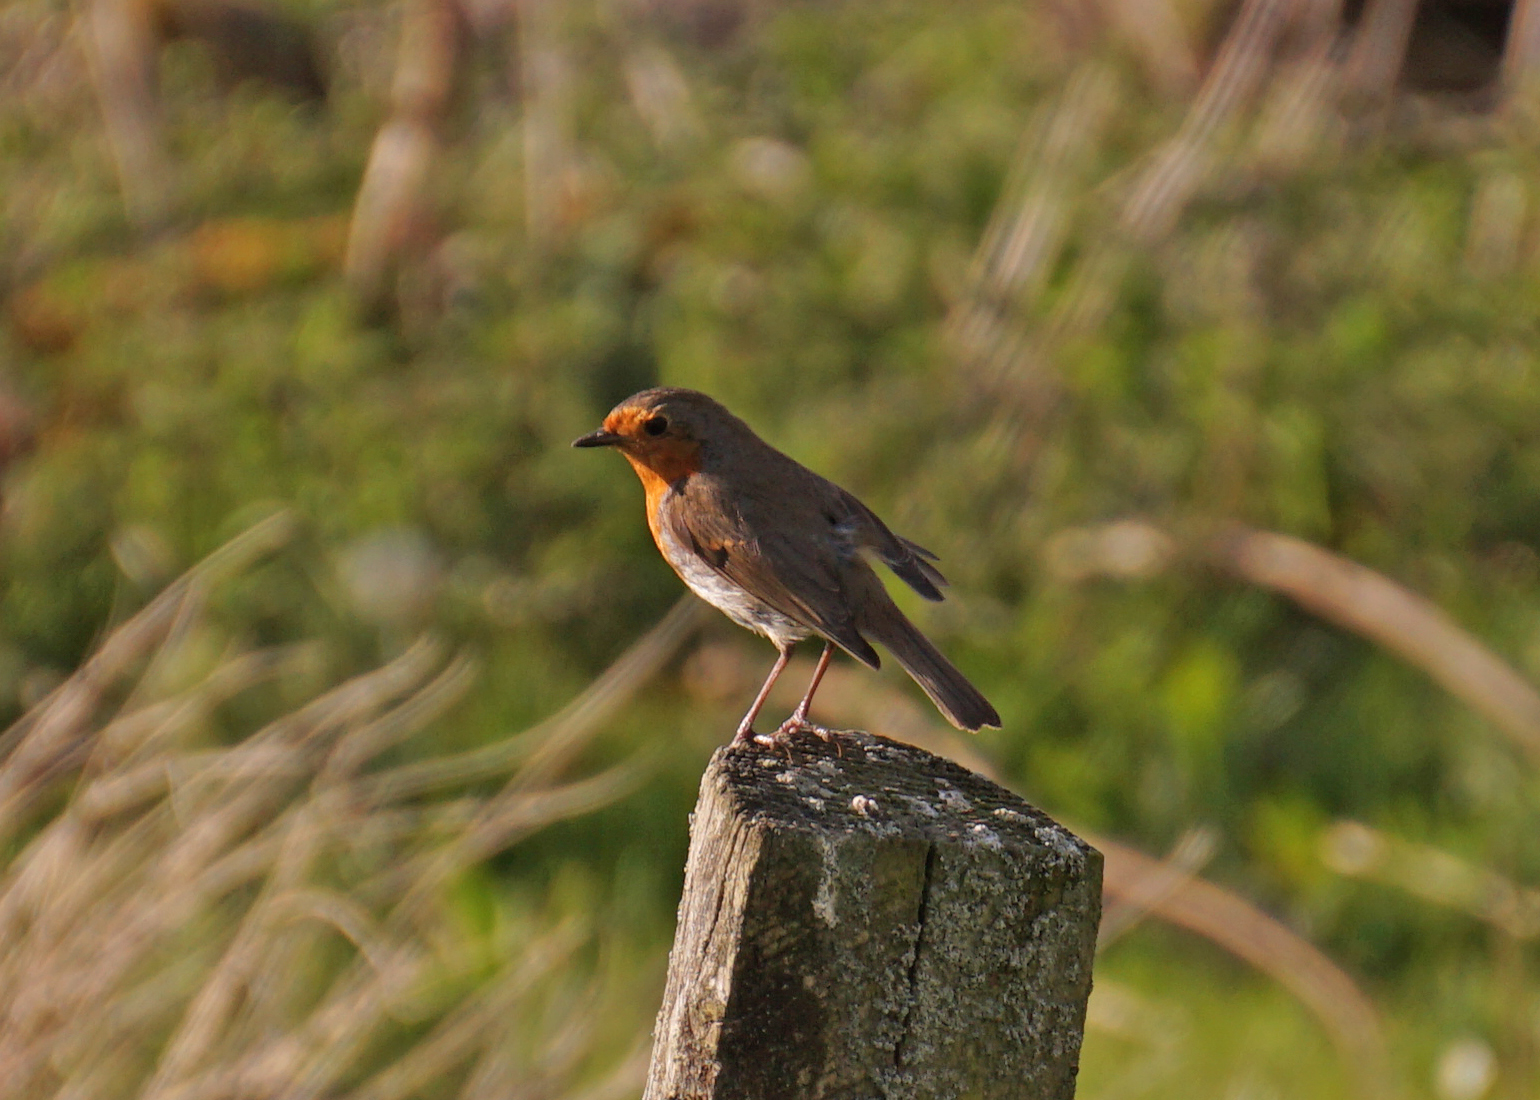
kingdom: Animalia
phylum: Chordata
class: Aves
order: Passeriformes
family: Muscicapidae
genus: Erithacus
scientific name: Erithacus rubecula
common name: European robin
